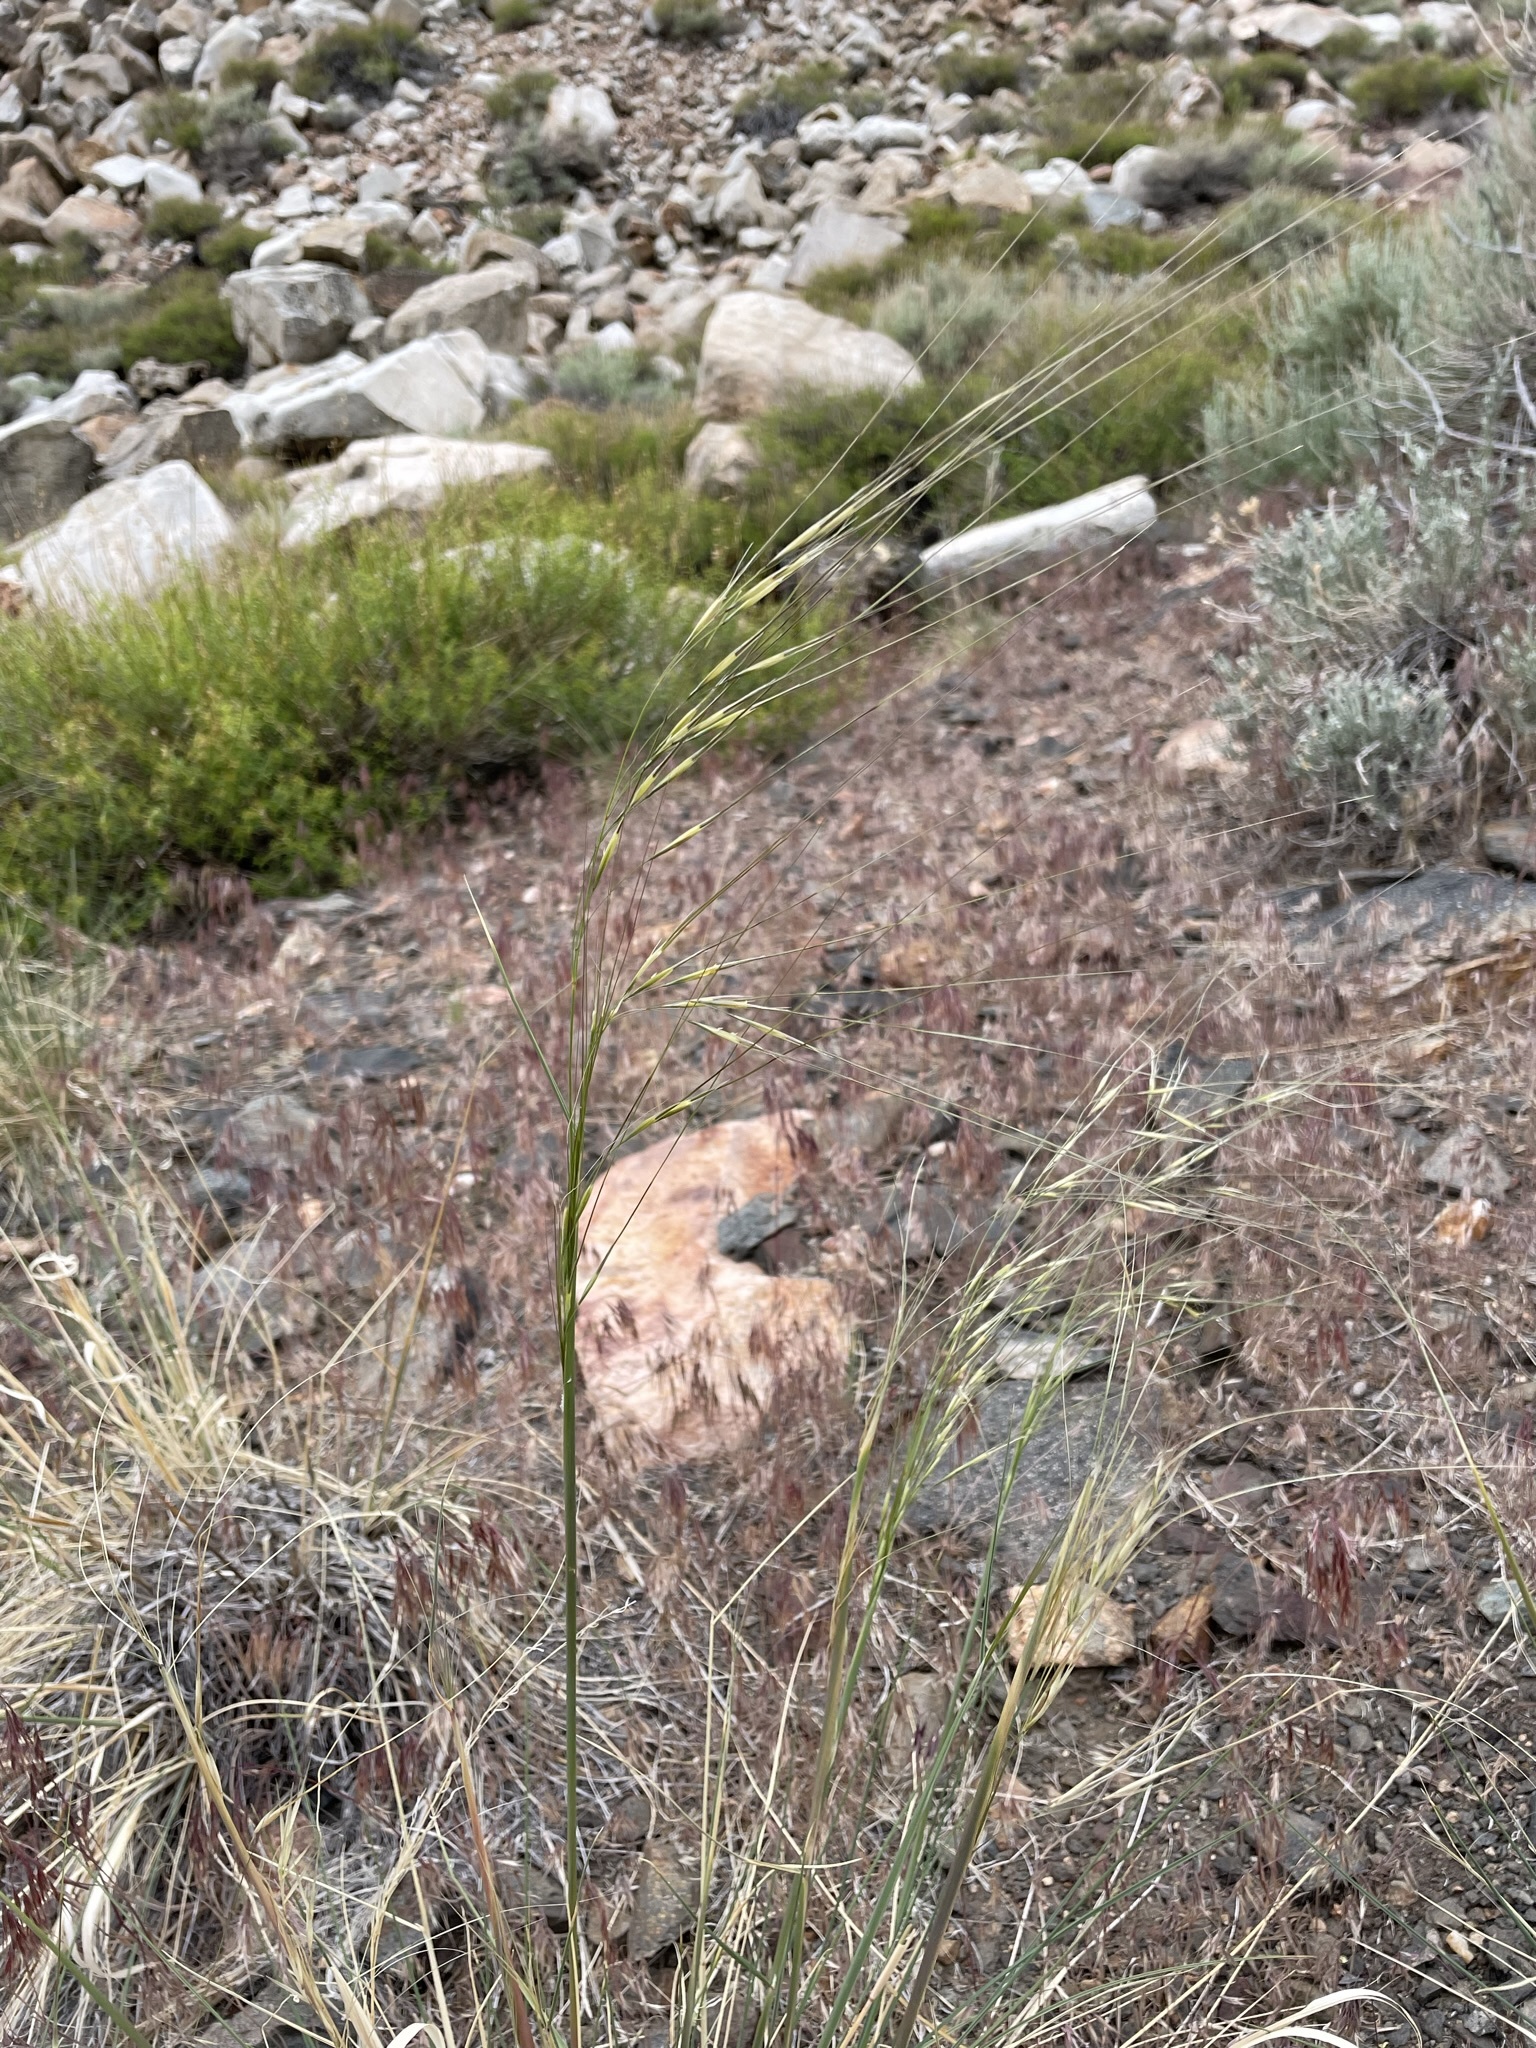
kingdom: Plantae
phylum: Tracheophyta
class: Liliopsida
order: Poales
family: Poaceae
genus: Hesperostipa
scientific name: Hesperostipa comata
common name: Needle-and-thread grass
